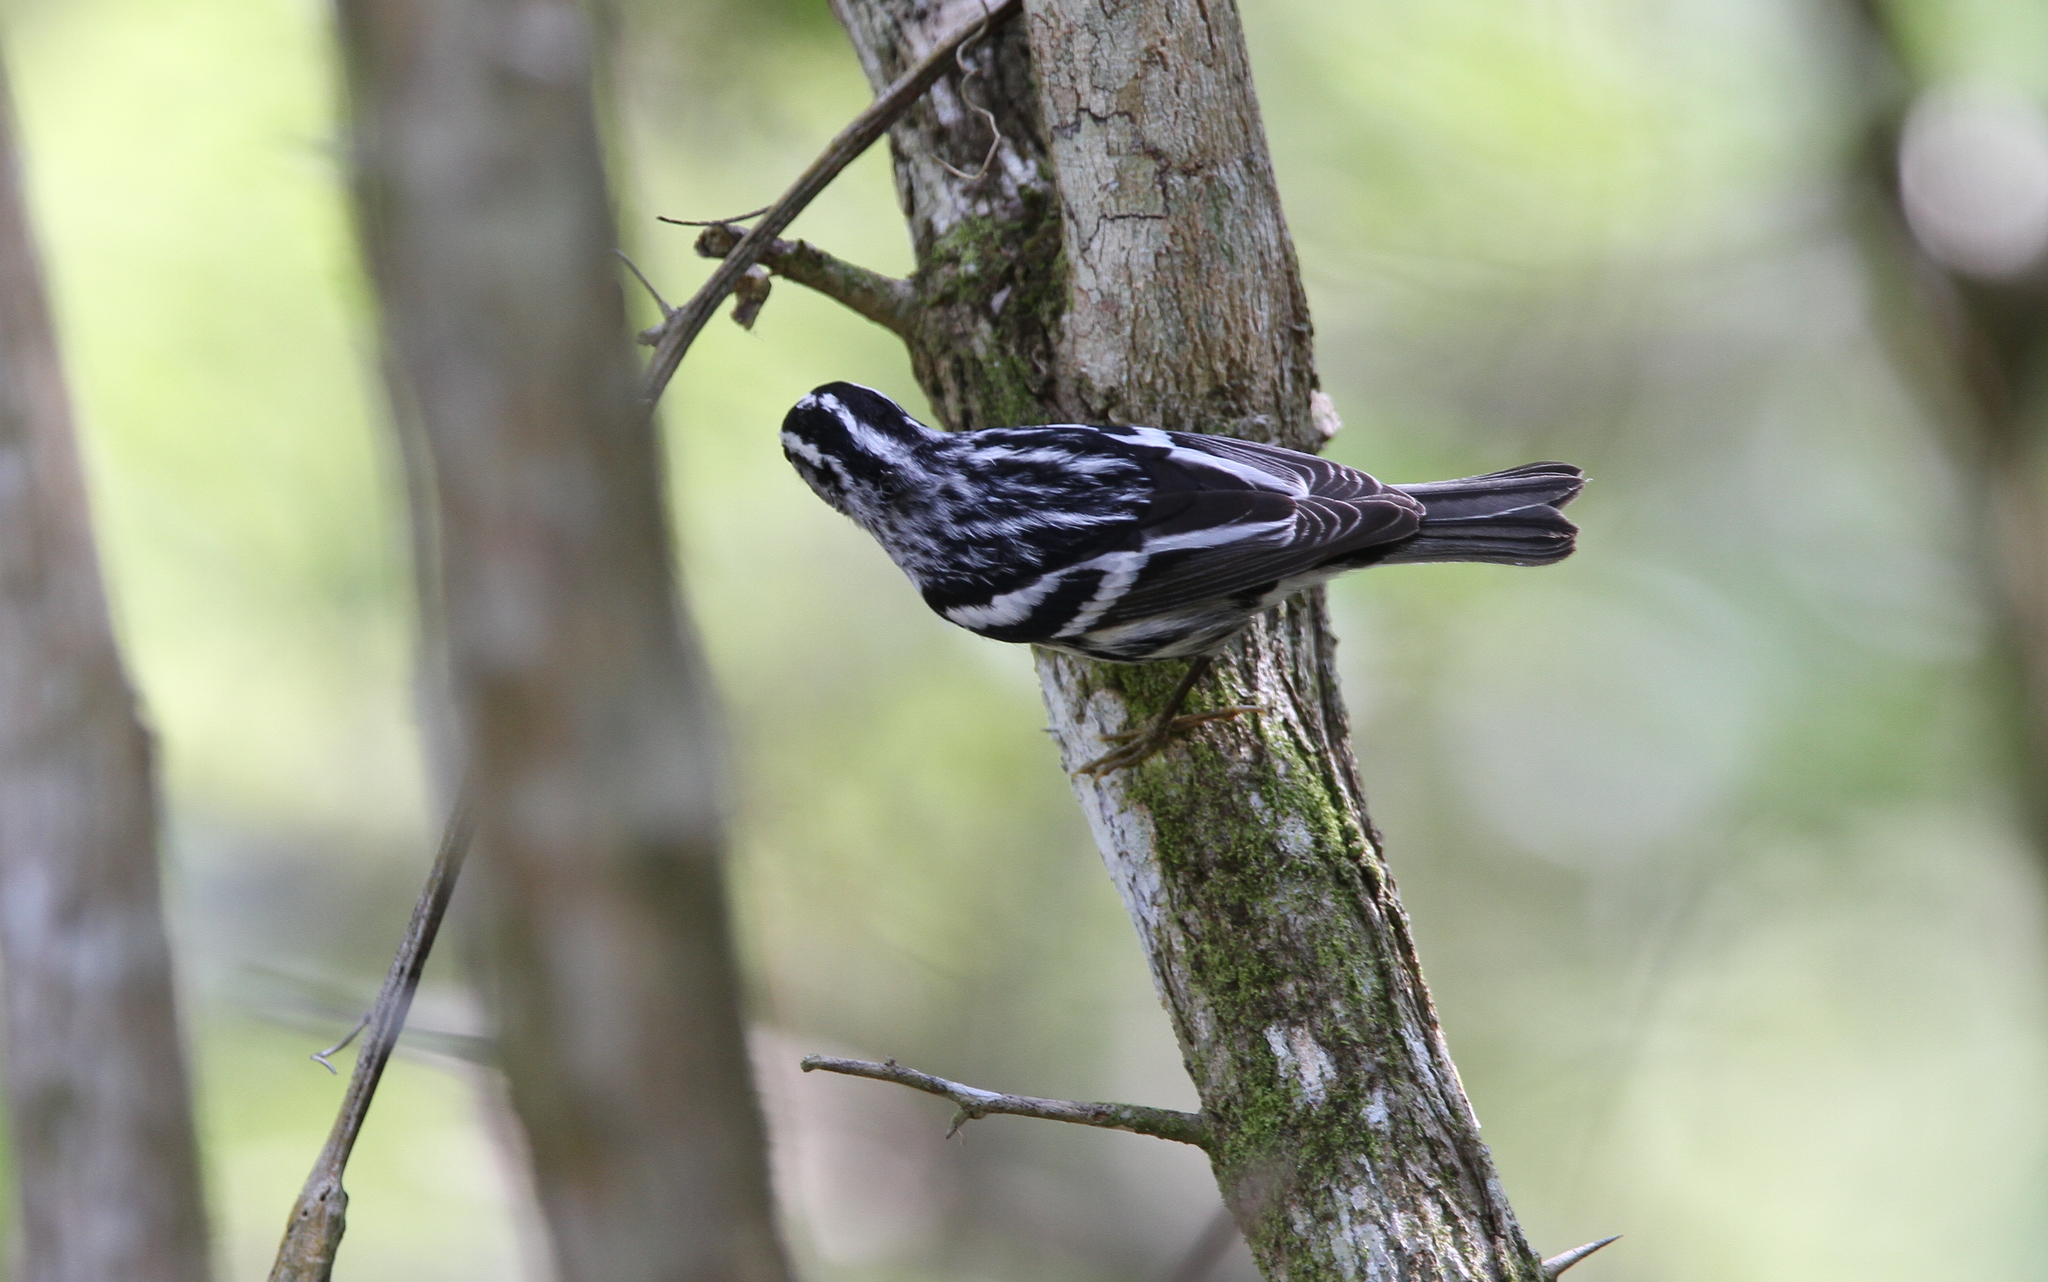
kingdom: Animalia
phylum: Chordata
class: Aves
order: Passeriformes
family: Parulidae
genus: Mniotilta
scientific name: Mniotilta varia
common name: Black-and-white warbler
